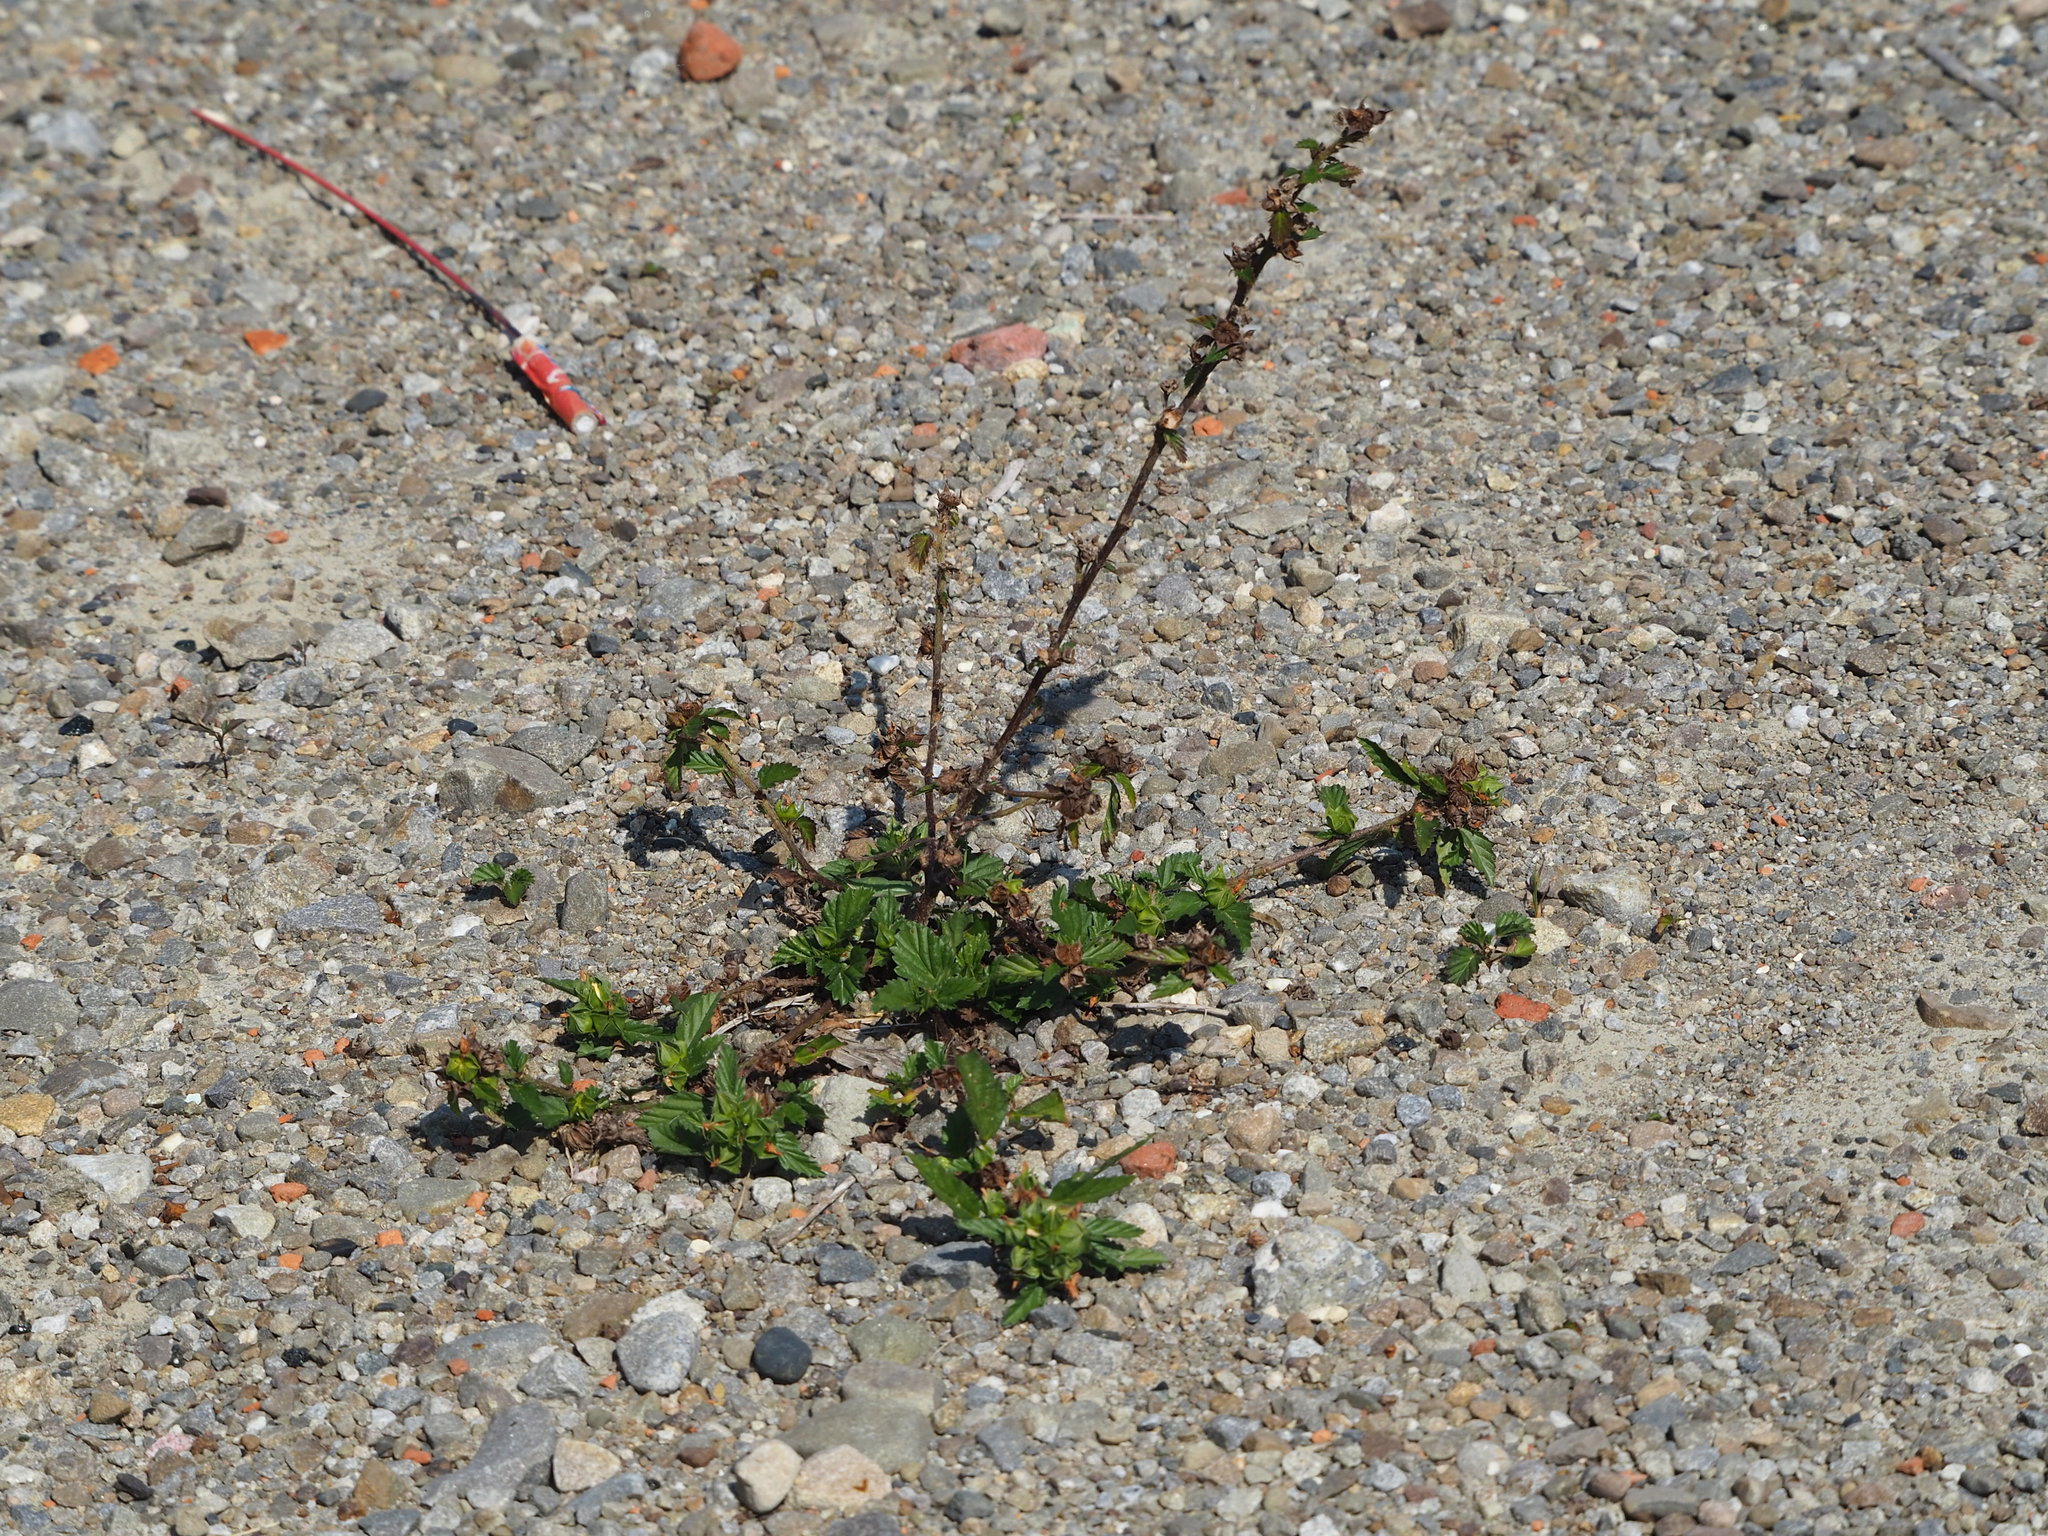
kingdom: Plantae
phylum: Tracheophyta
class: Magnoliopsida
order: Malvales
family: Malvaceae
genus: Malvastrum
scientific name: Malvastrum coromandelianum
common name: Threelobe false mallow
